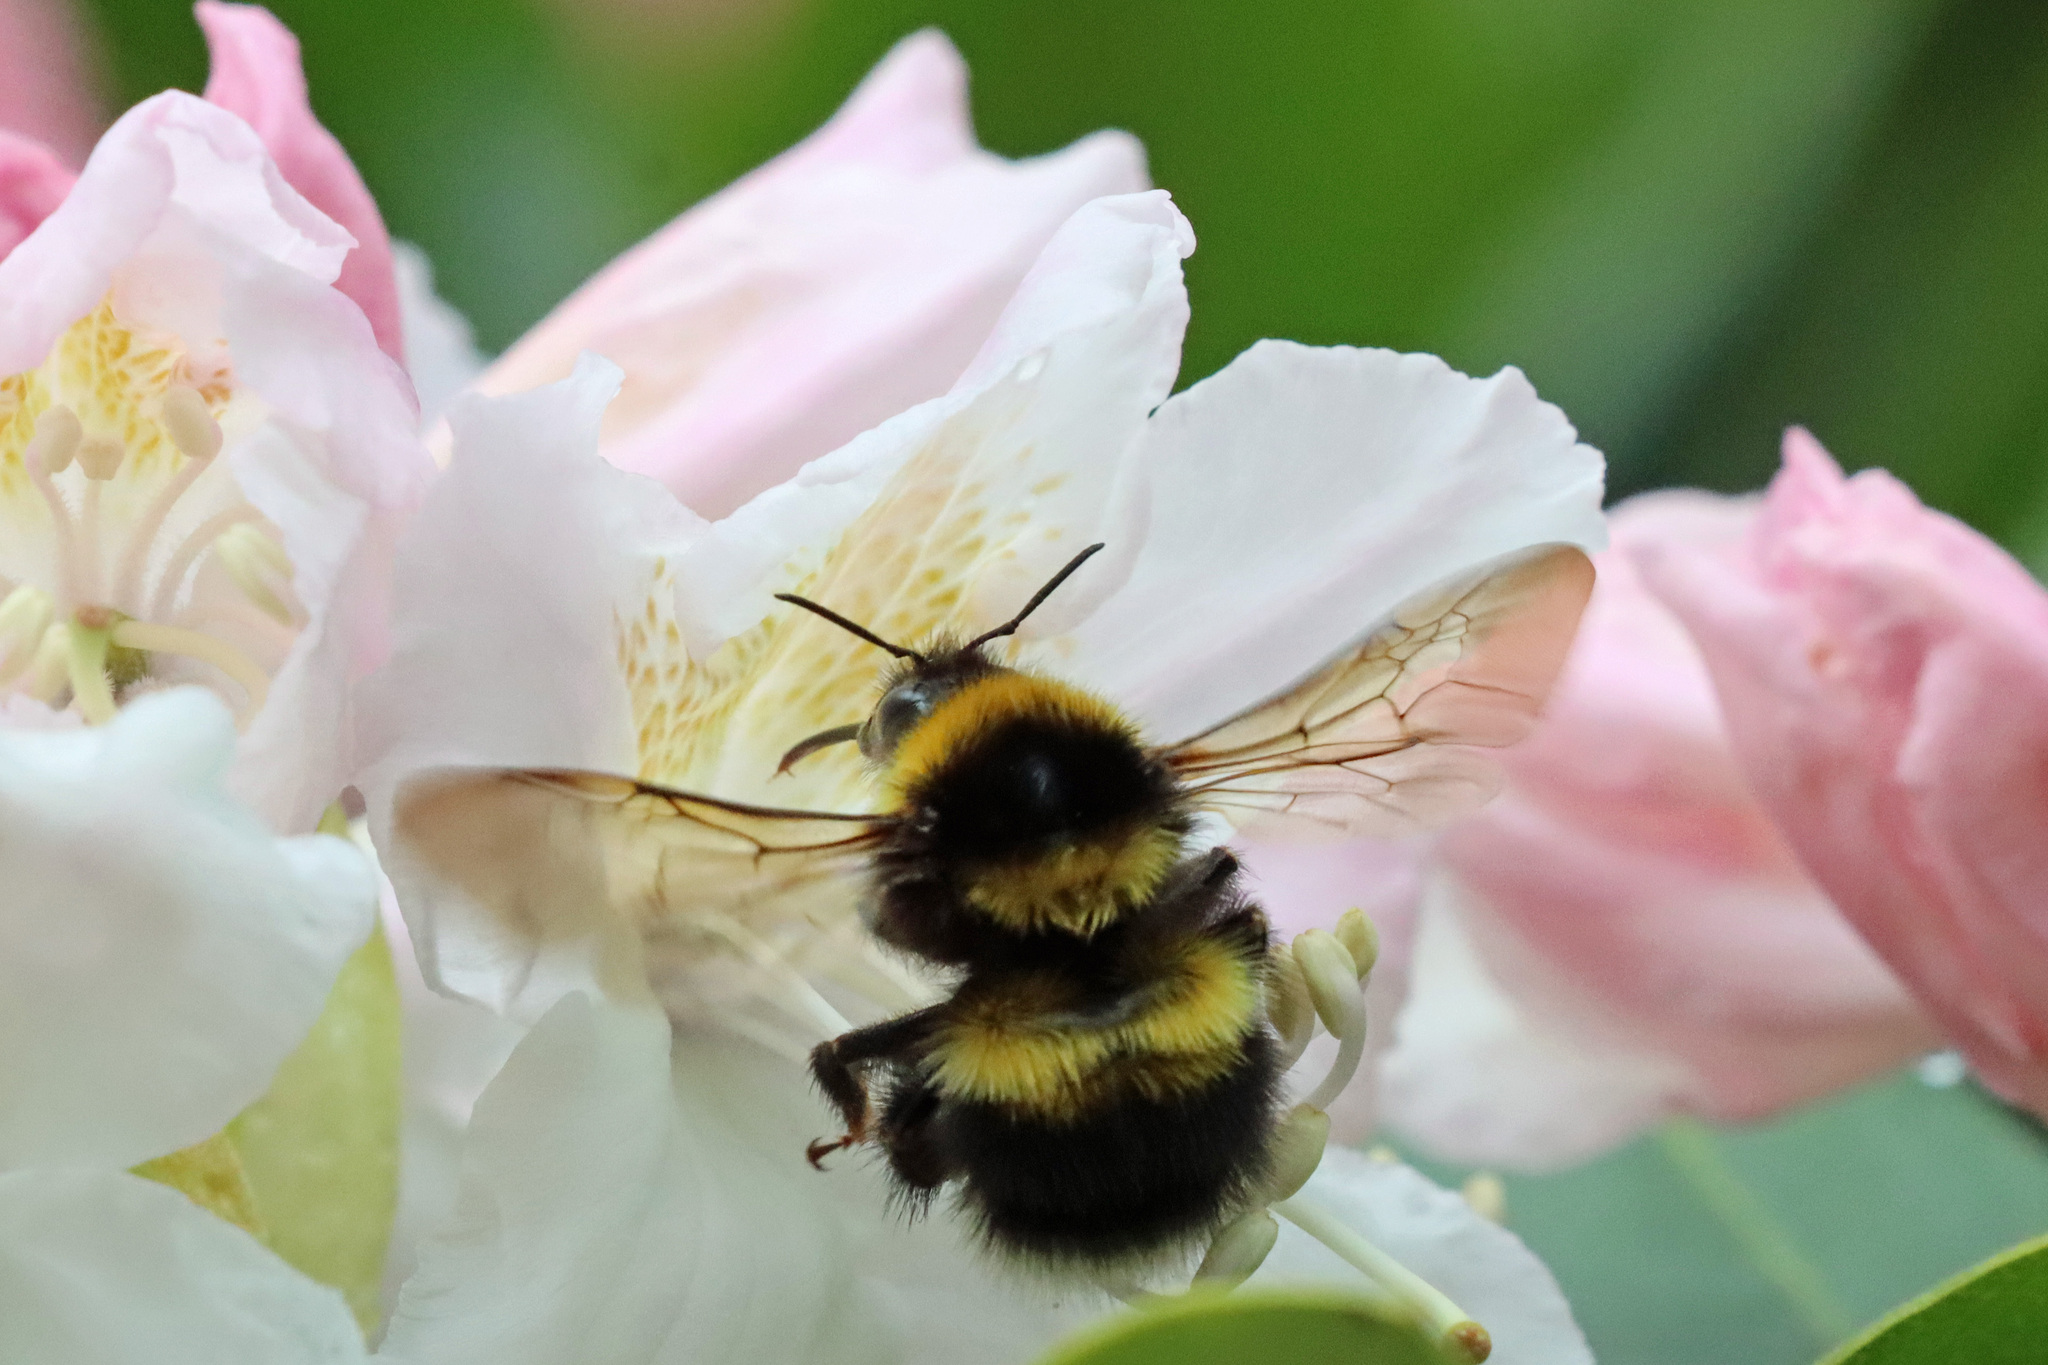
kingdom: Animalia
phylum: Arthropoda
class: Insecta
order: Hymenoptera
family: Apidae
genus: Bombus
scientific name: Bombus hortorum
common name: Garden bumblebee
